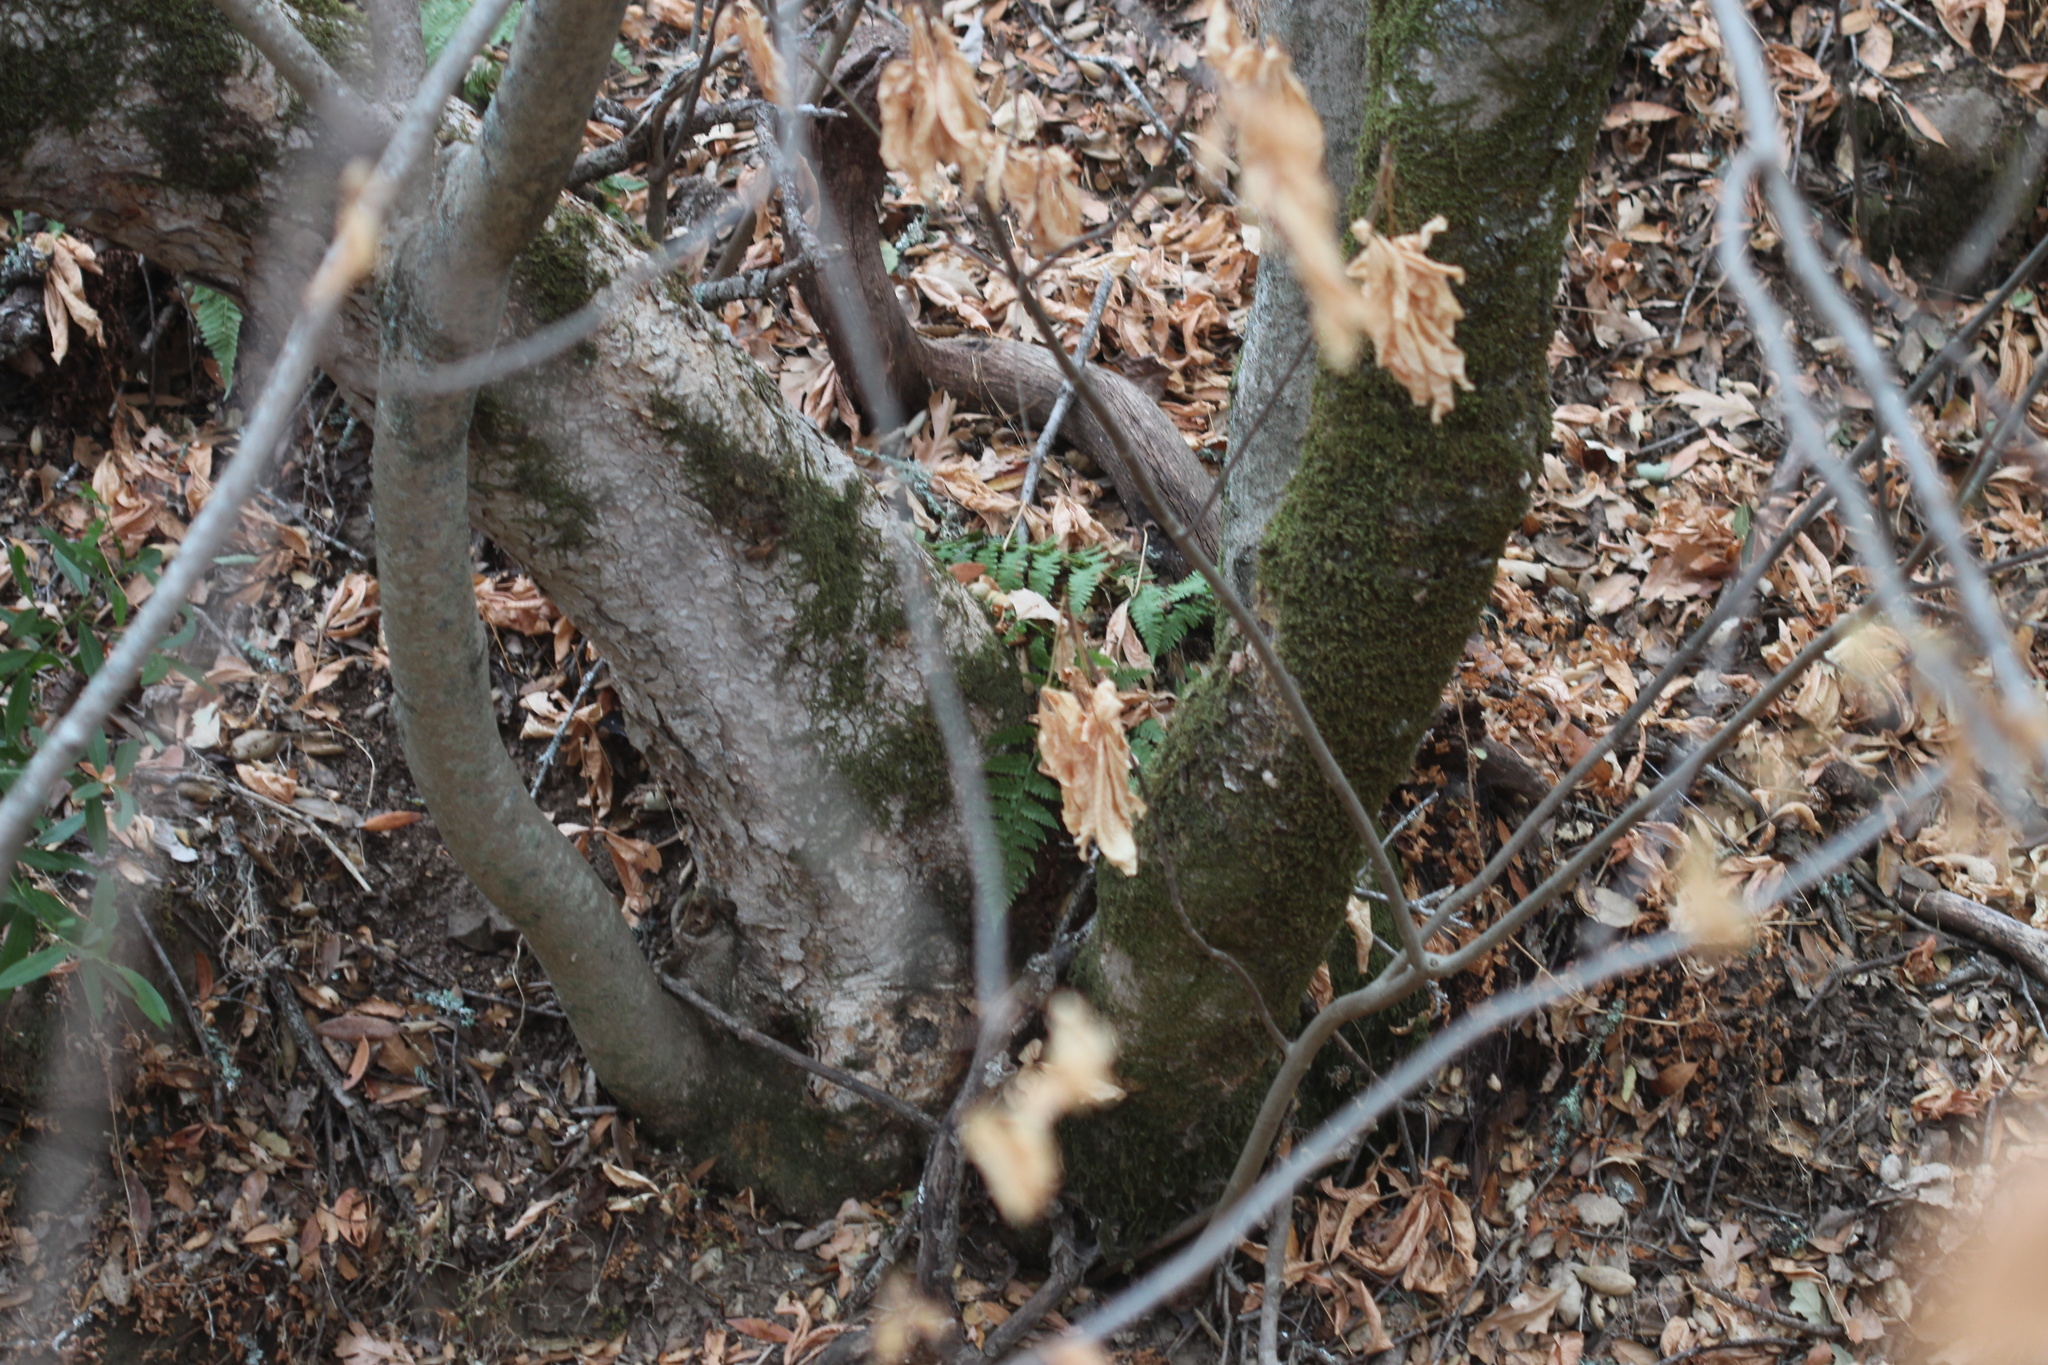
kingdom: Plantae
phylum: Tracheophyta
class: Magnoliopsida
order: Sapindales
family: Sapindaceae
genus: Aesculus
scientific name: Aesculus californica
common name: California buckeye
